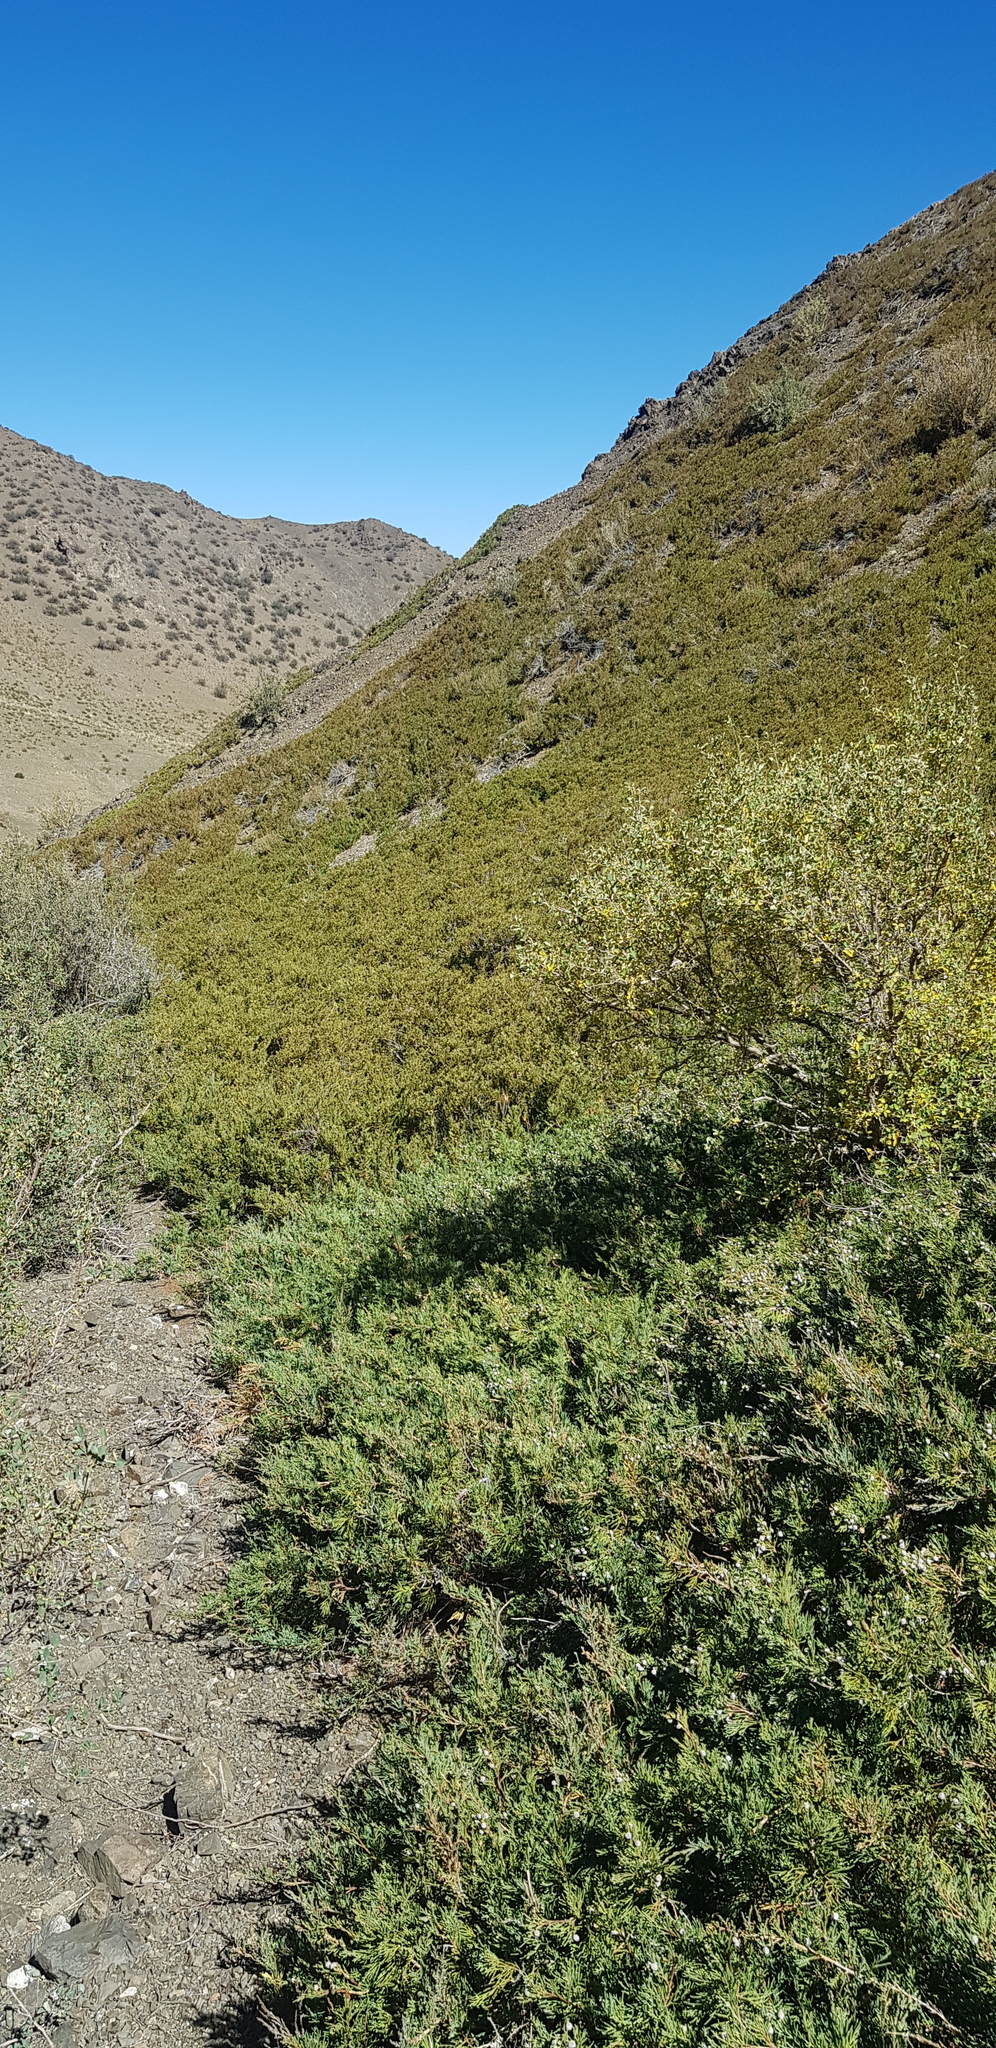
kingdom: Plantae
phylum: Tracheophyta
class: Pinopsida
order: Pinales
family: Cupressaceae
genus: Juniperus
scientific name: Juniperus sabina
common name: Savin
